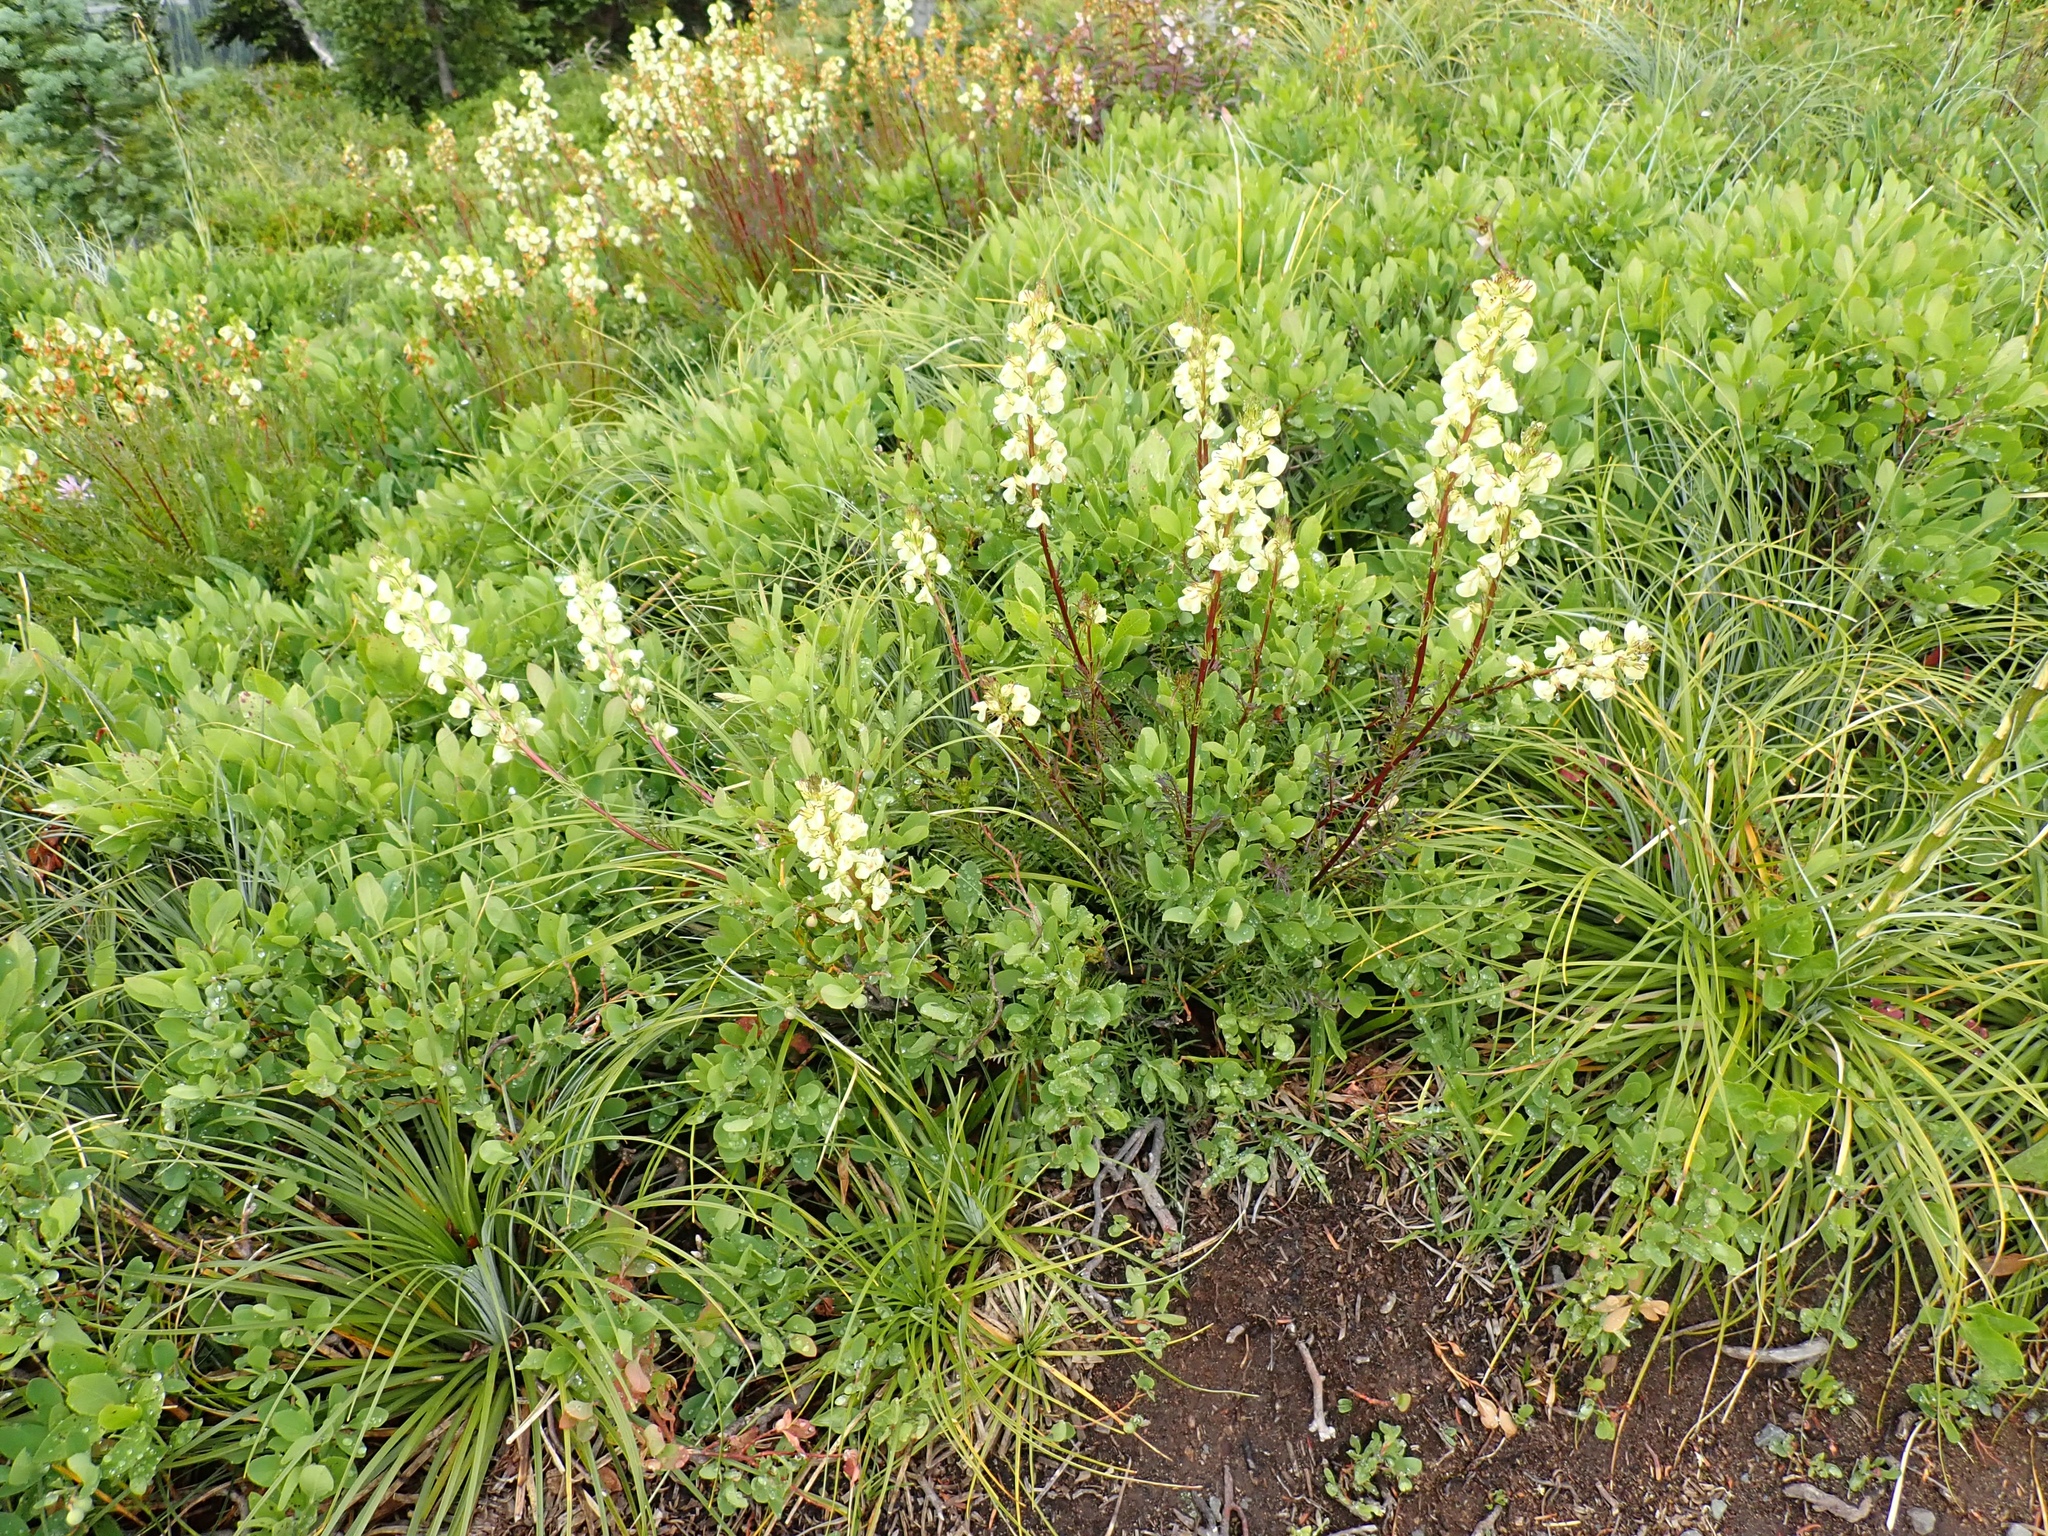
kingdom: Plantae
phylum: Tracheophyta
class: Magnoliopsida
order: Lamiales
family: Orobanchaceae
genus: Pedicularis
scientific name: Pedicularis racemosa
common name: Leafy lousewort
